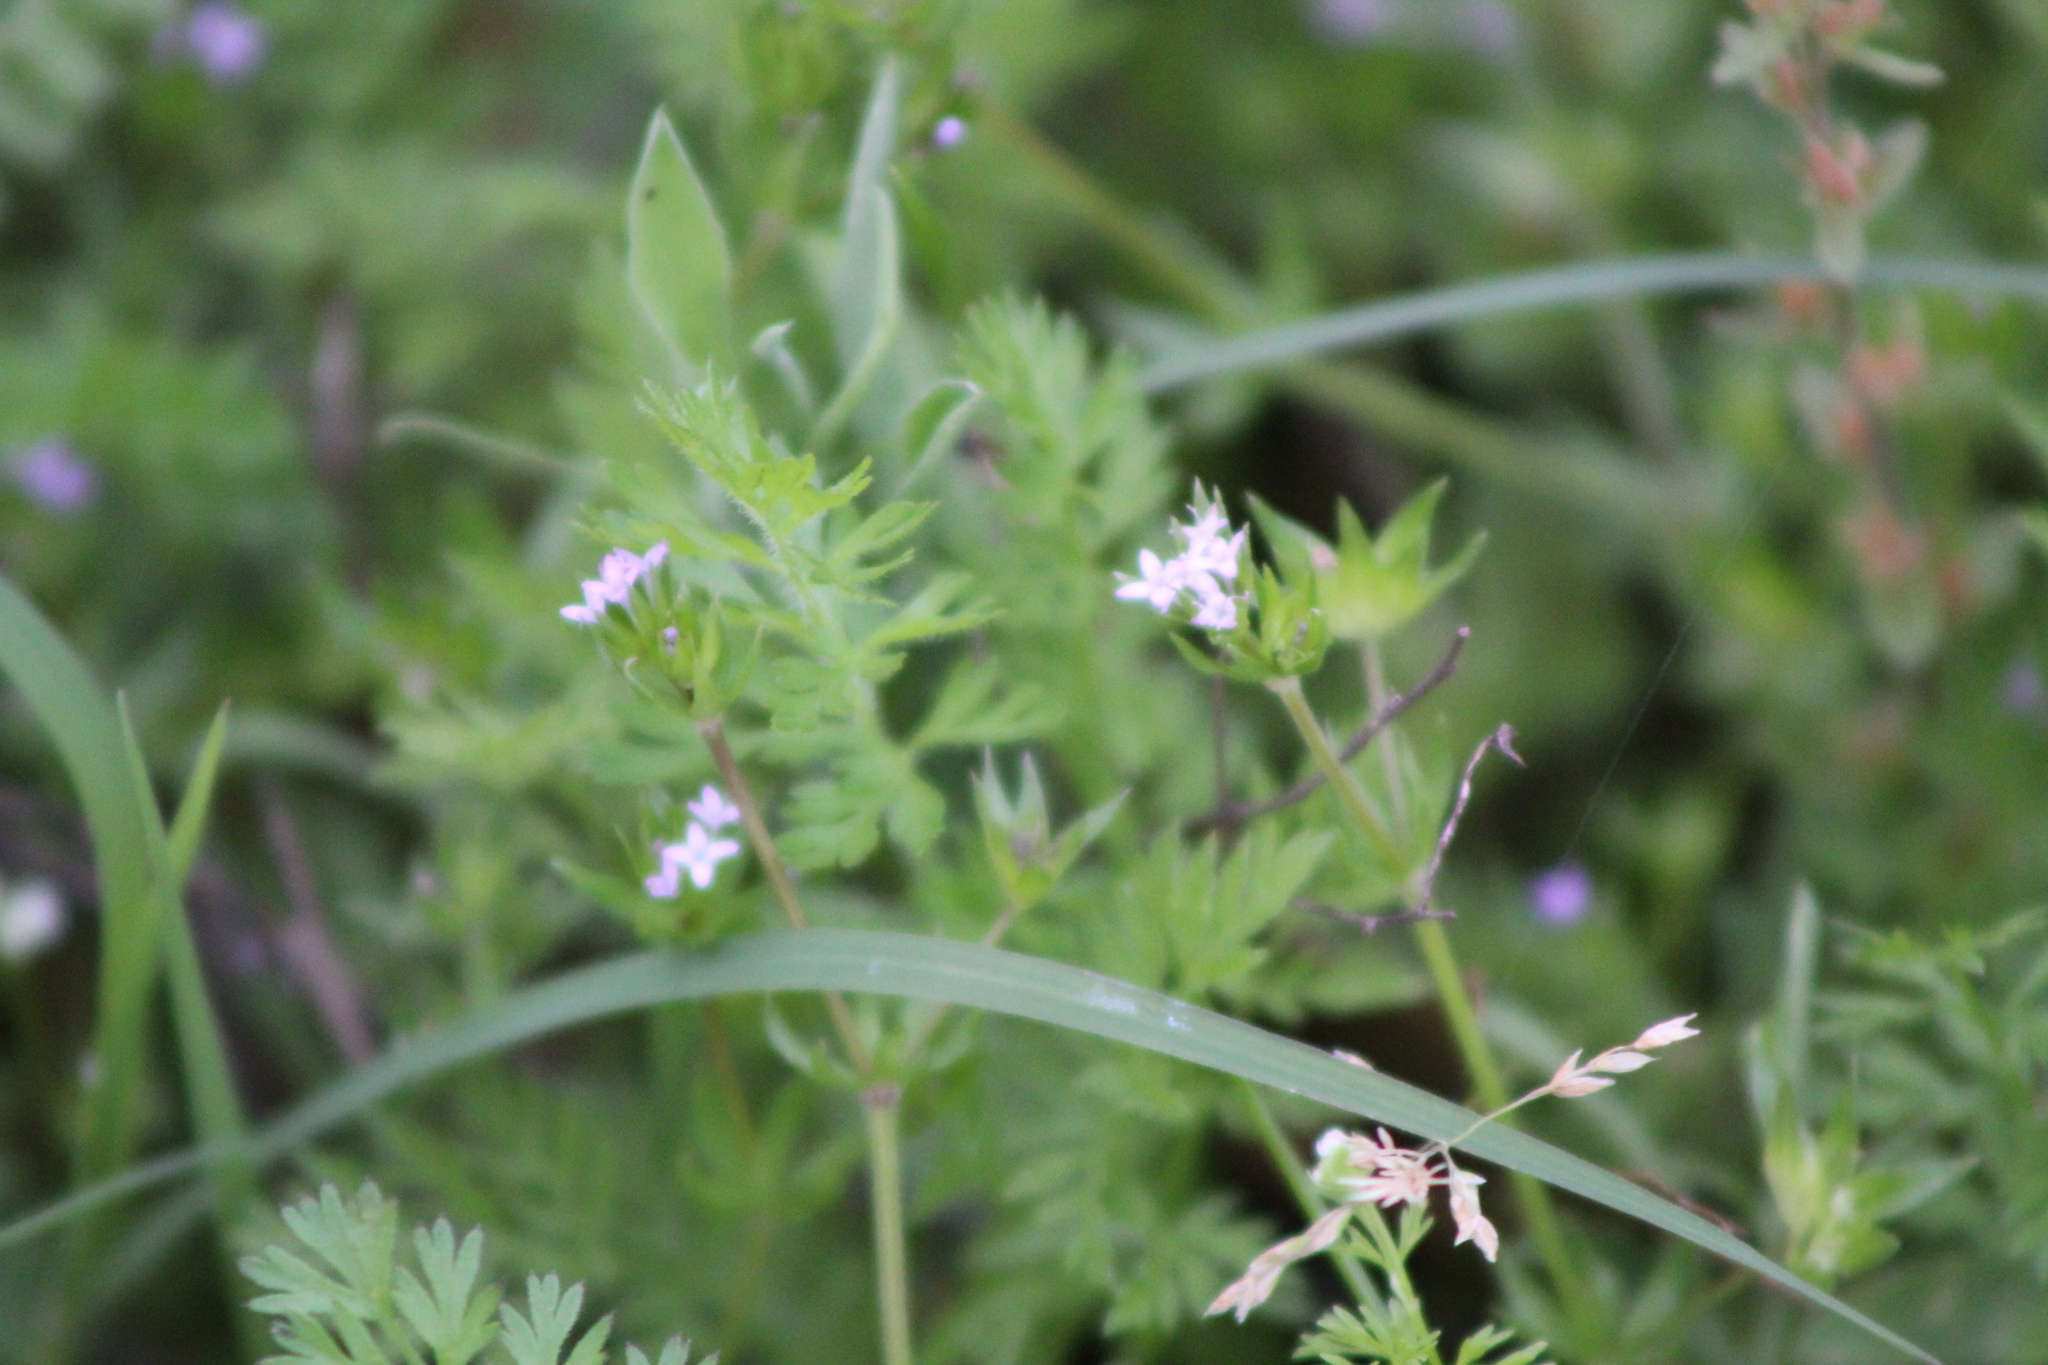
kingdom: Plantae
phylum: Tracheophyta
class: Magnoliopsida
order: Gentianales
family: Rubiaceae
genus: Sherardia
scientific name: Sherardia arvensis
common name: Field madder
